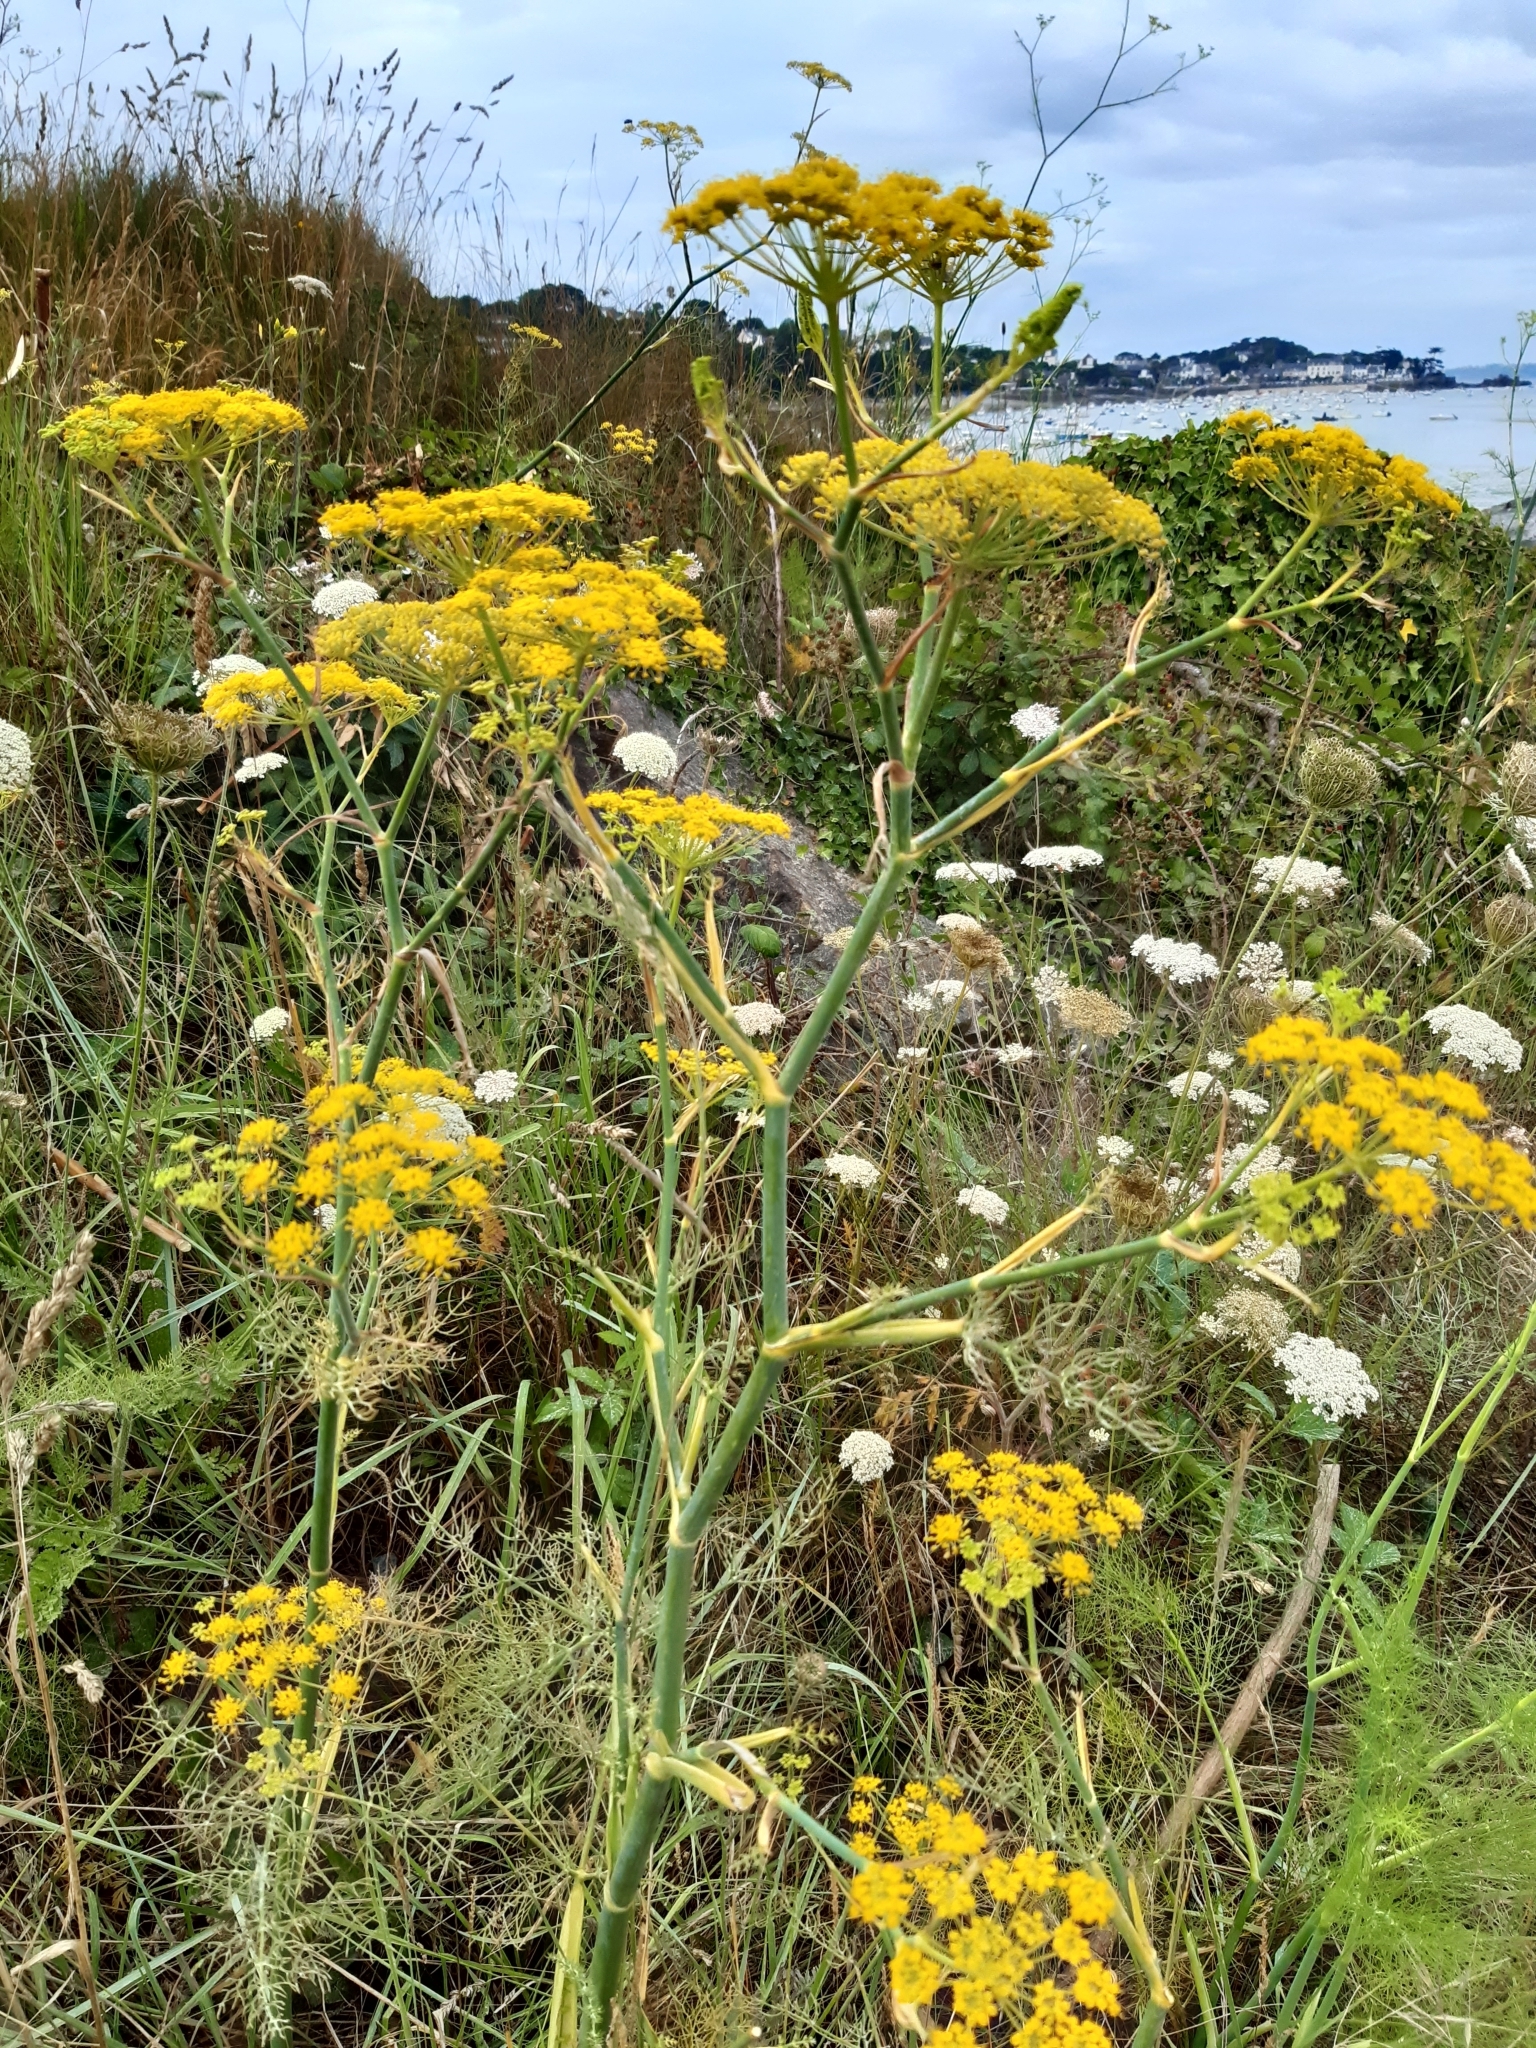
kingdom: Plantae
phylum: Tracheophyta
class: Magnoliopsida
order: Apiales
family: Apiaceae
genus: Foeniculum
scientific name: Foeniculum vulgare
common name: Fennel
